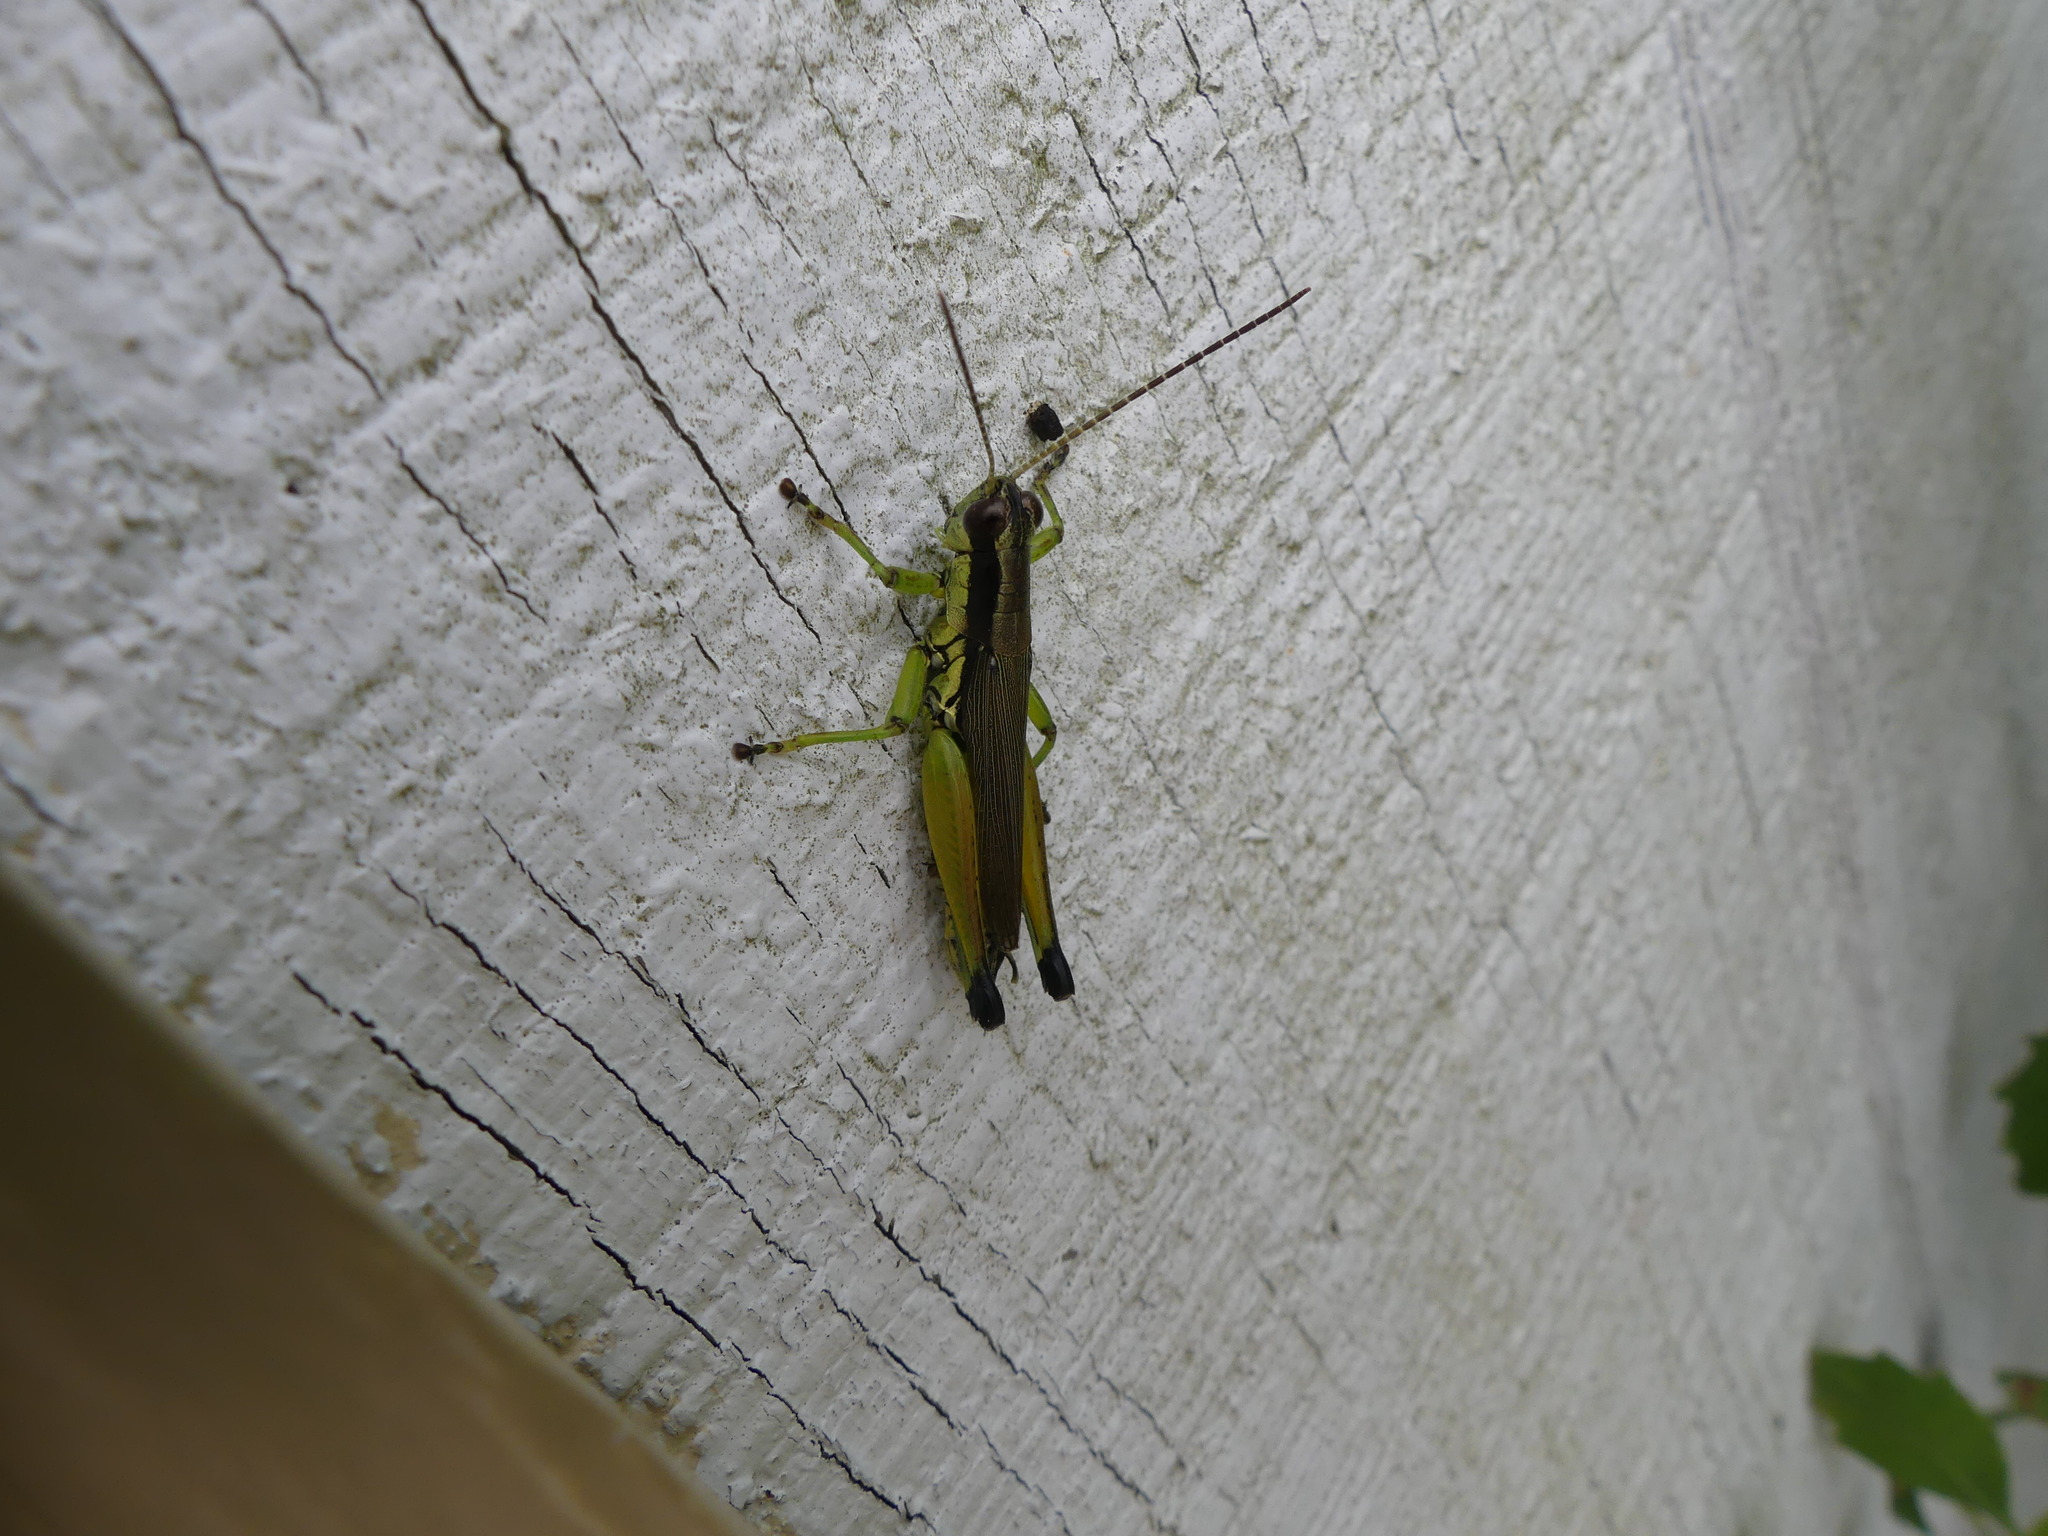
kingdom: Animalia
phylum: Arthropoda
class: Insecta
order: Orthoptera
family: Acrididae
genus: Paroxya
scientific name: Paroxya clavuligera
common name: Olive-green swamp grasshopper
